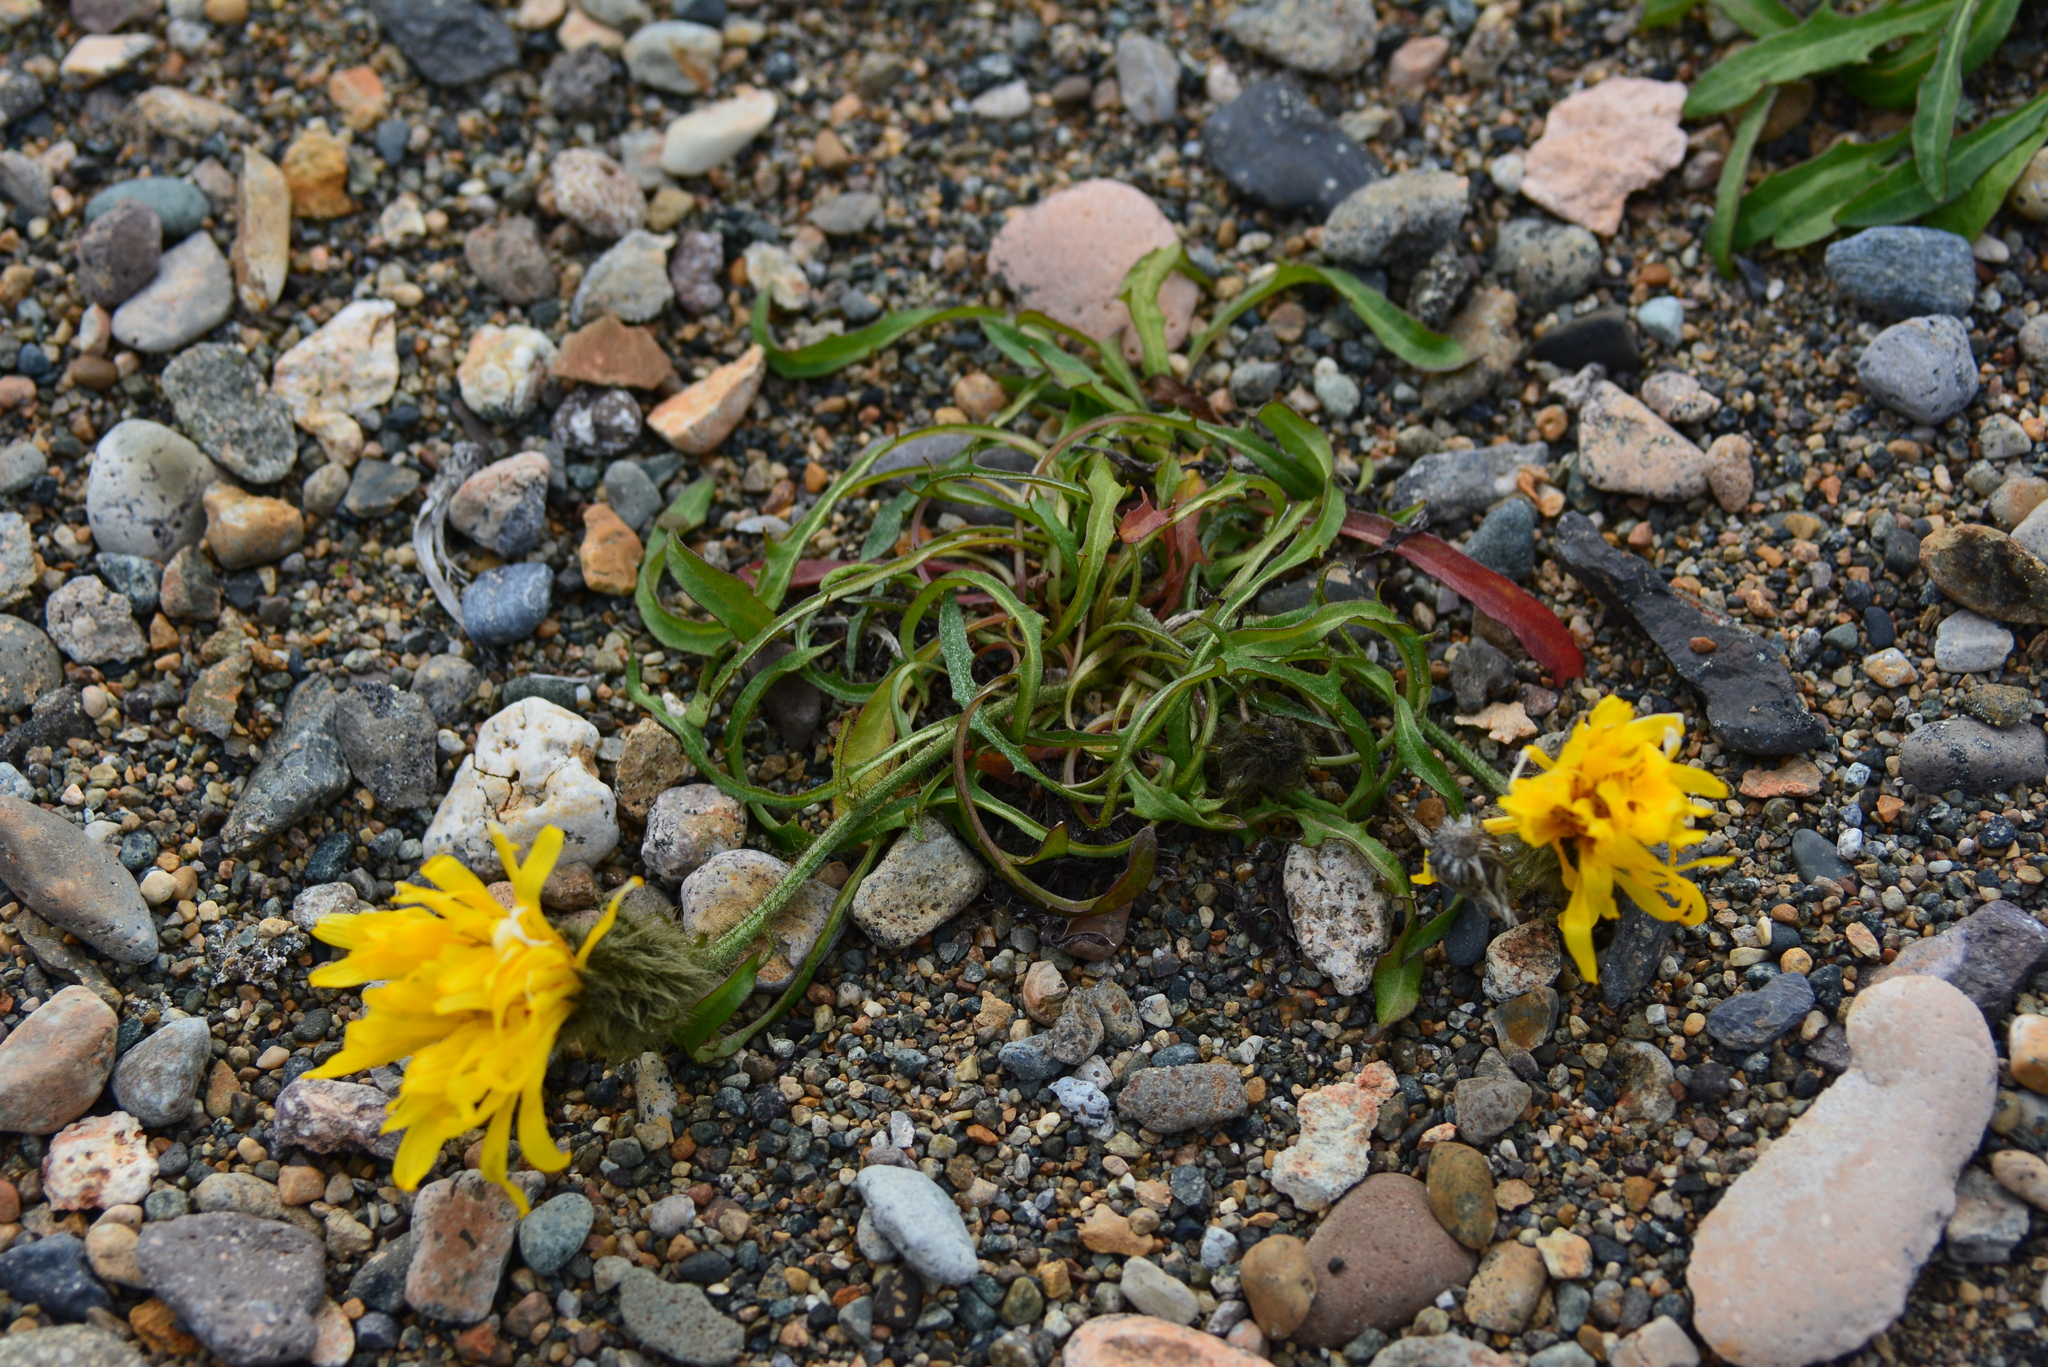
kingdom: Plantae
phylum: Tracheophyta
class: Magnoliopsida
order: Asterales
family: Asteraceae
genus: Crepis
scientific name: Crepis chrysantha
